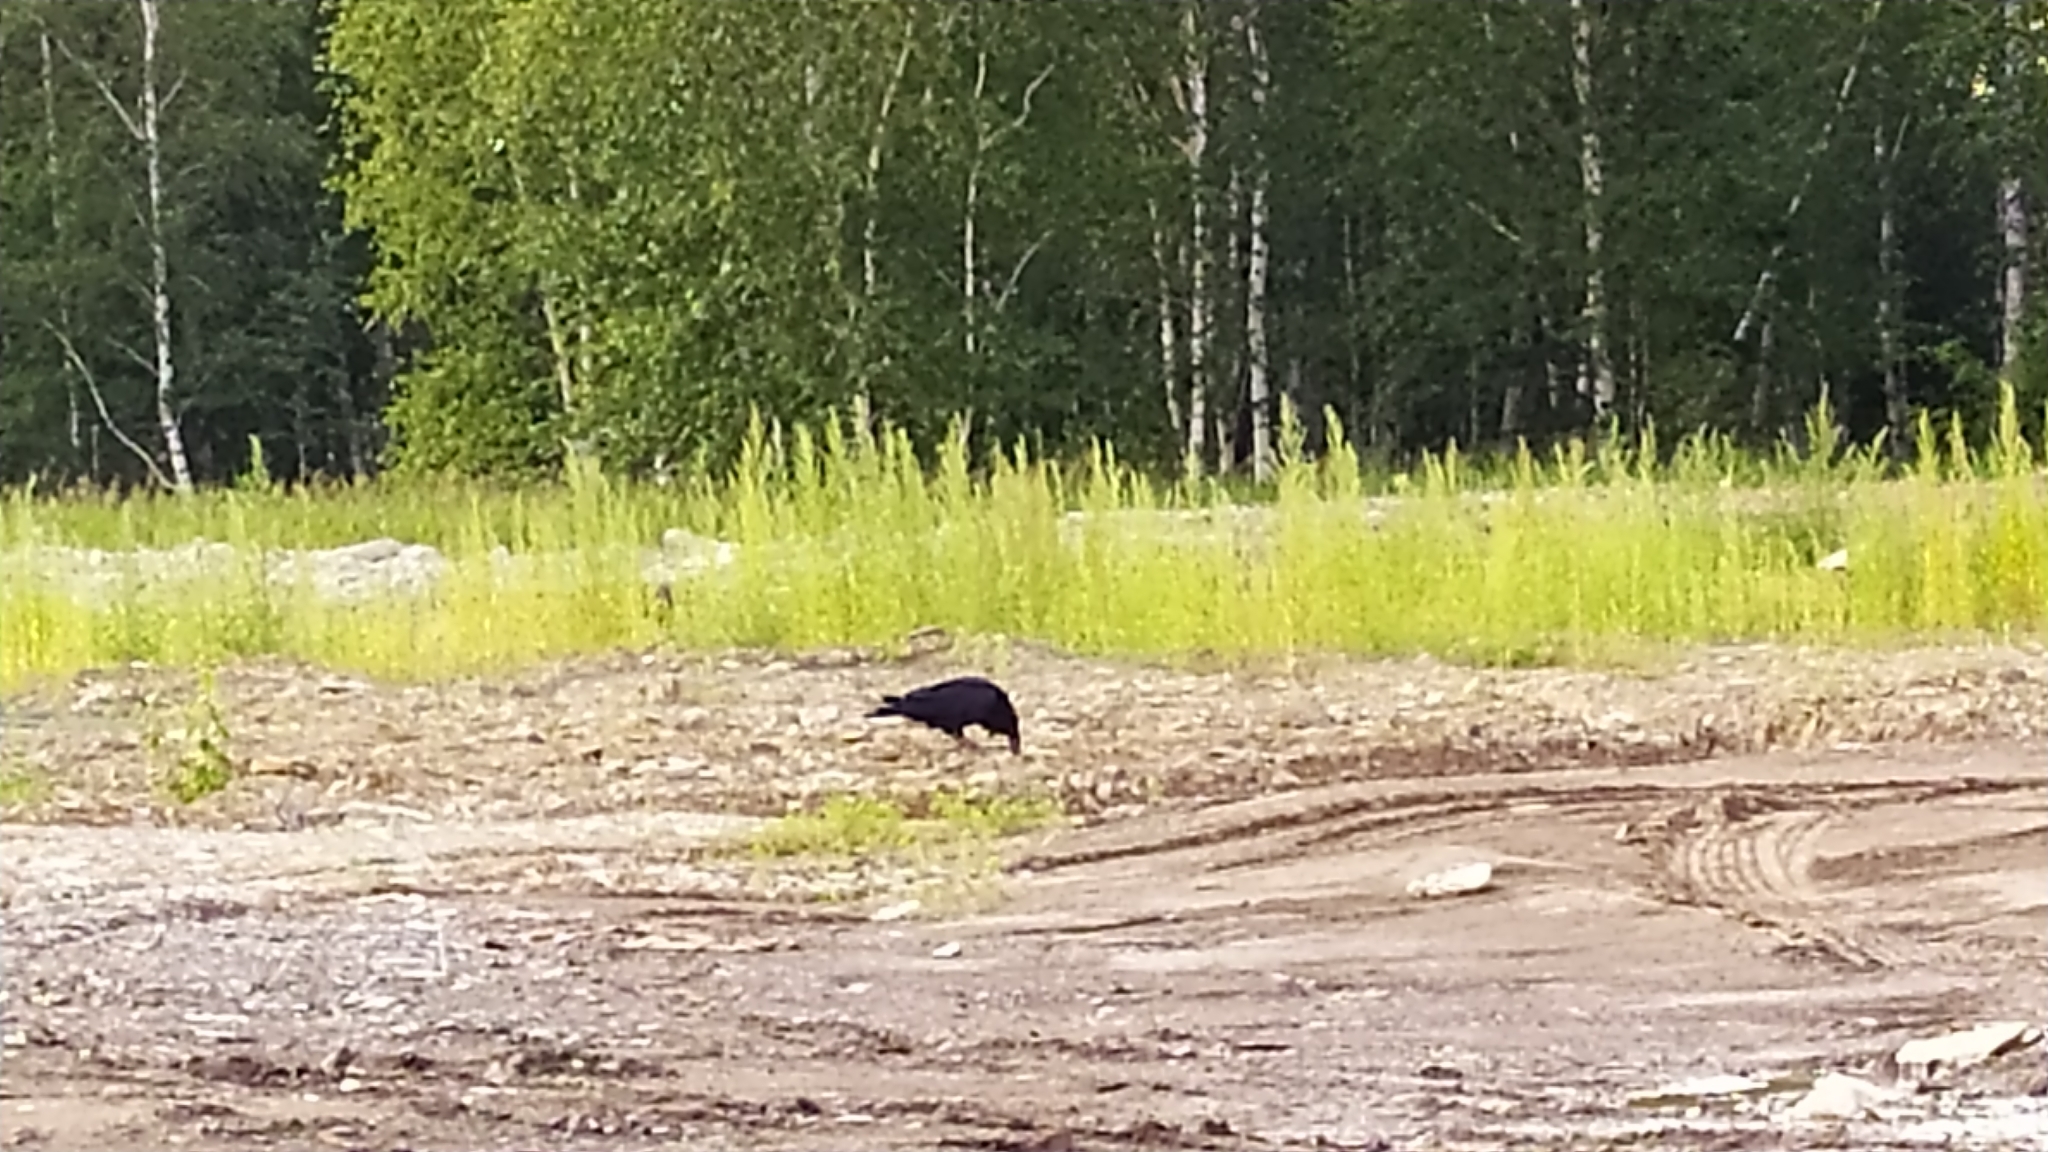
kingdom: Animalia
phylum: Chordata
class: Aves
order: Passeriformes
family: Corvidae
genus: Corvus
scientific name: Corvus corax
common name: Common raven
